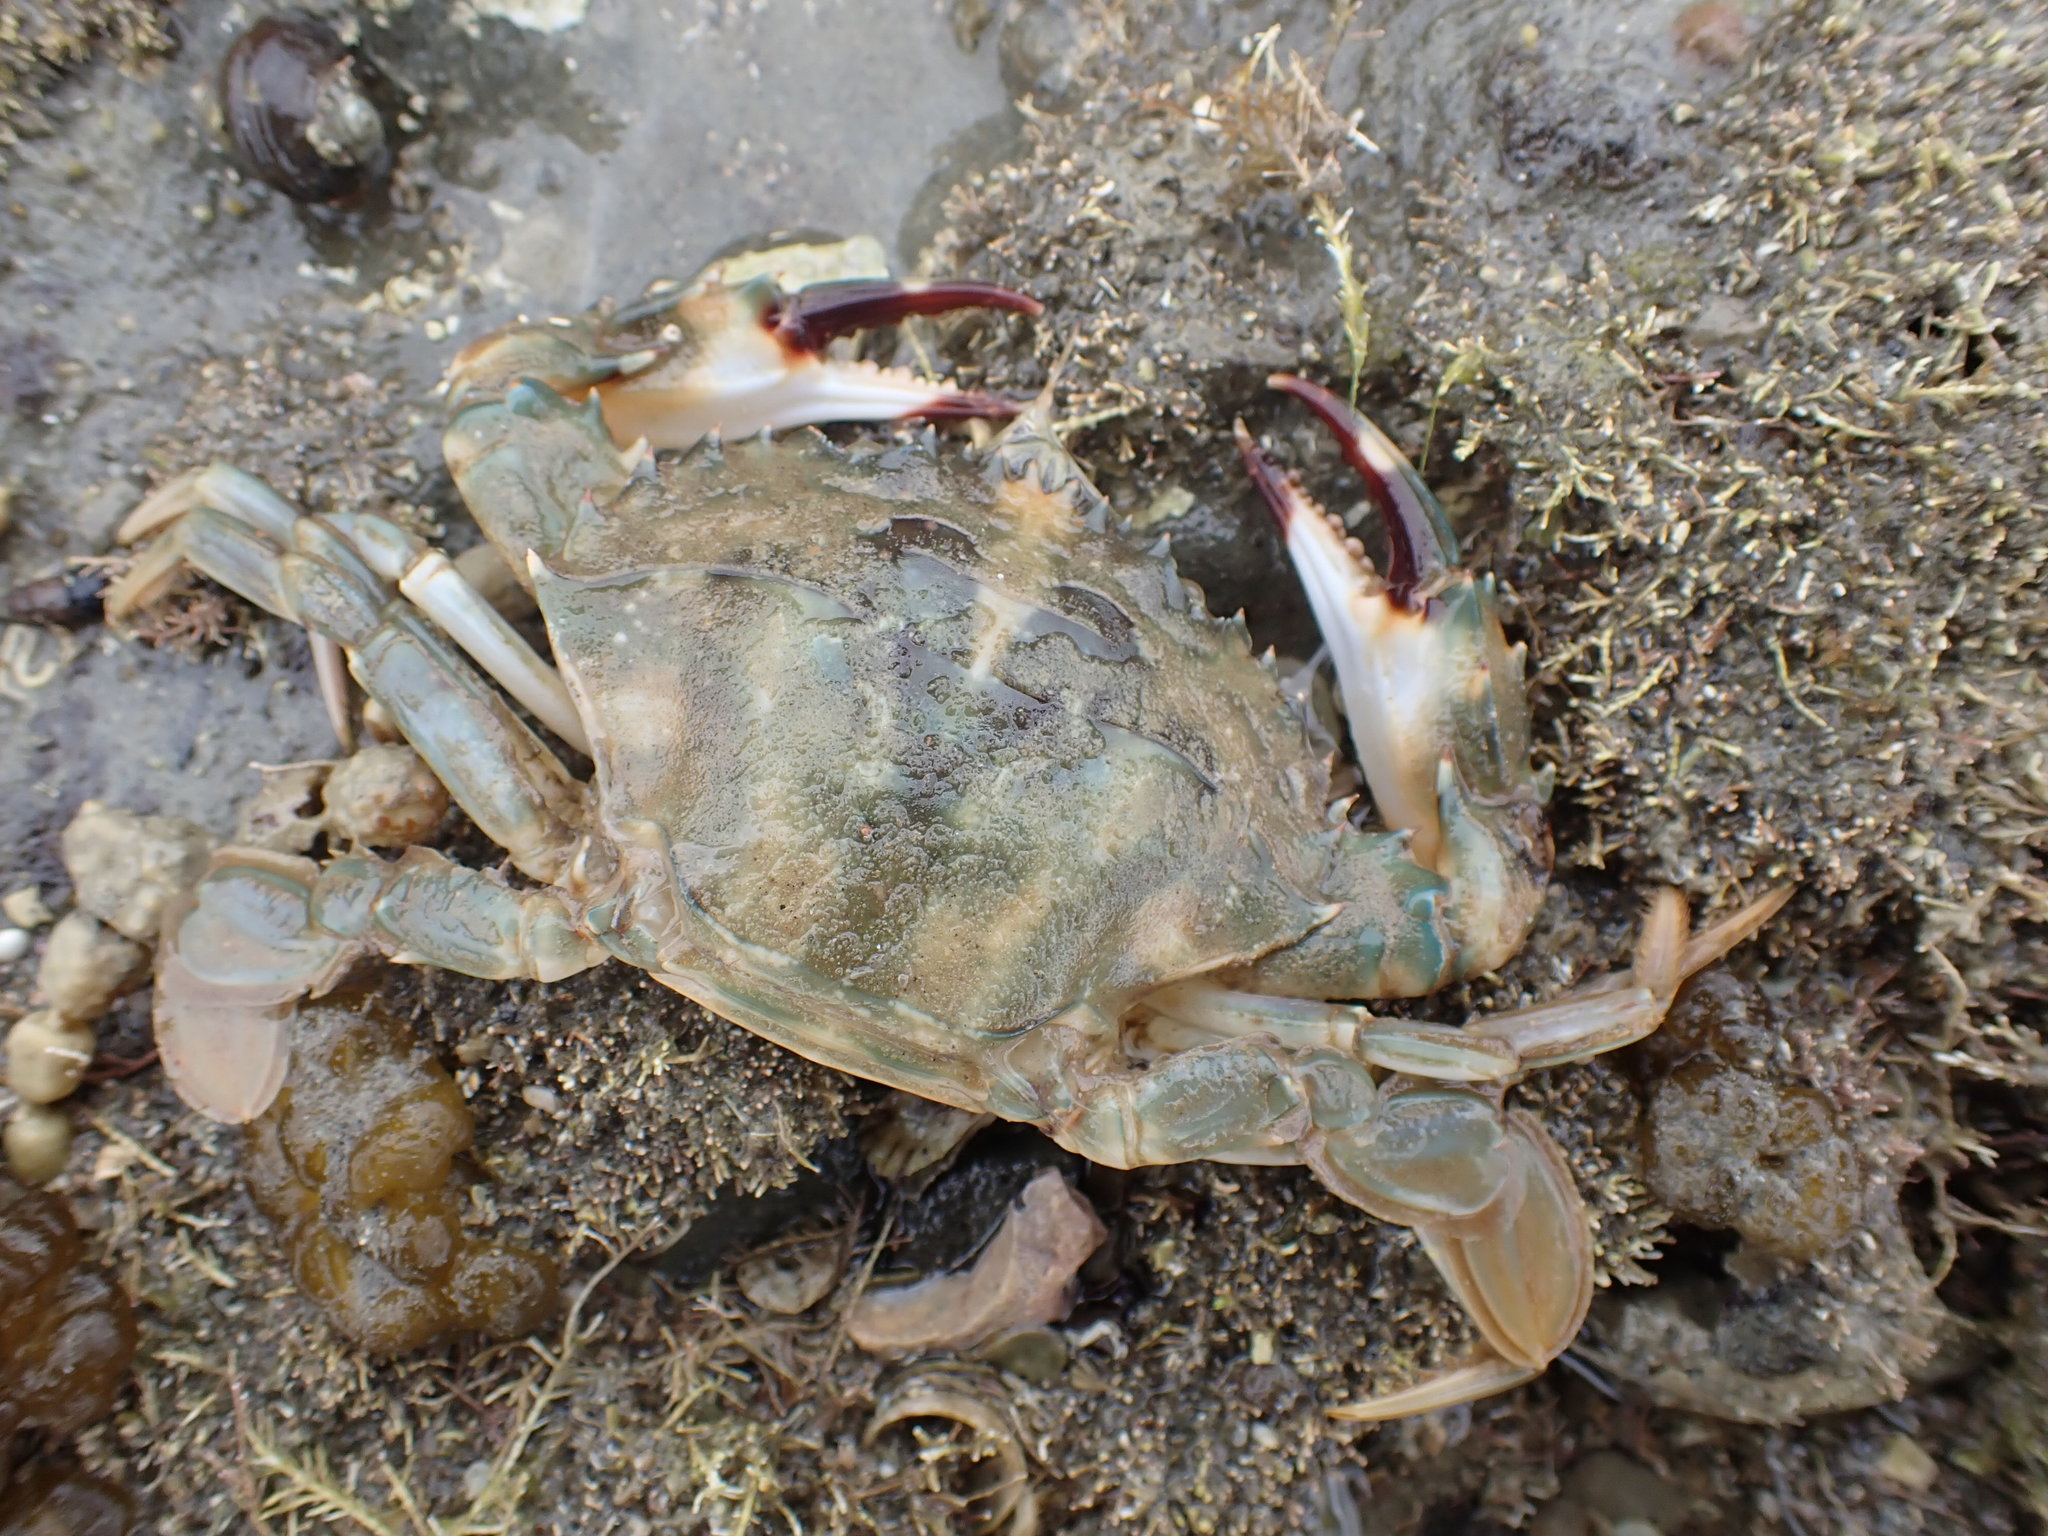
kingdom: Animalia
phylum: Arthropoda
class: Malacostraca
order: Decapoda
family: Portunidae
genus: Charybdis
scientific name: Charybdis japonica
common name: Asian paddle crab
